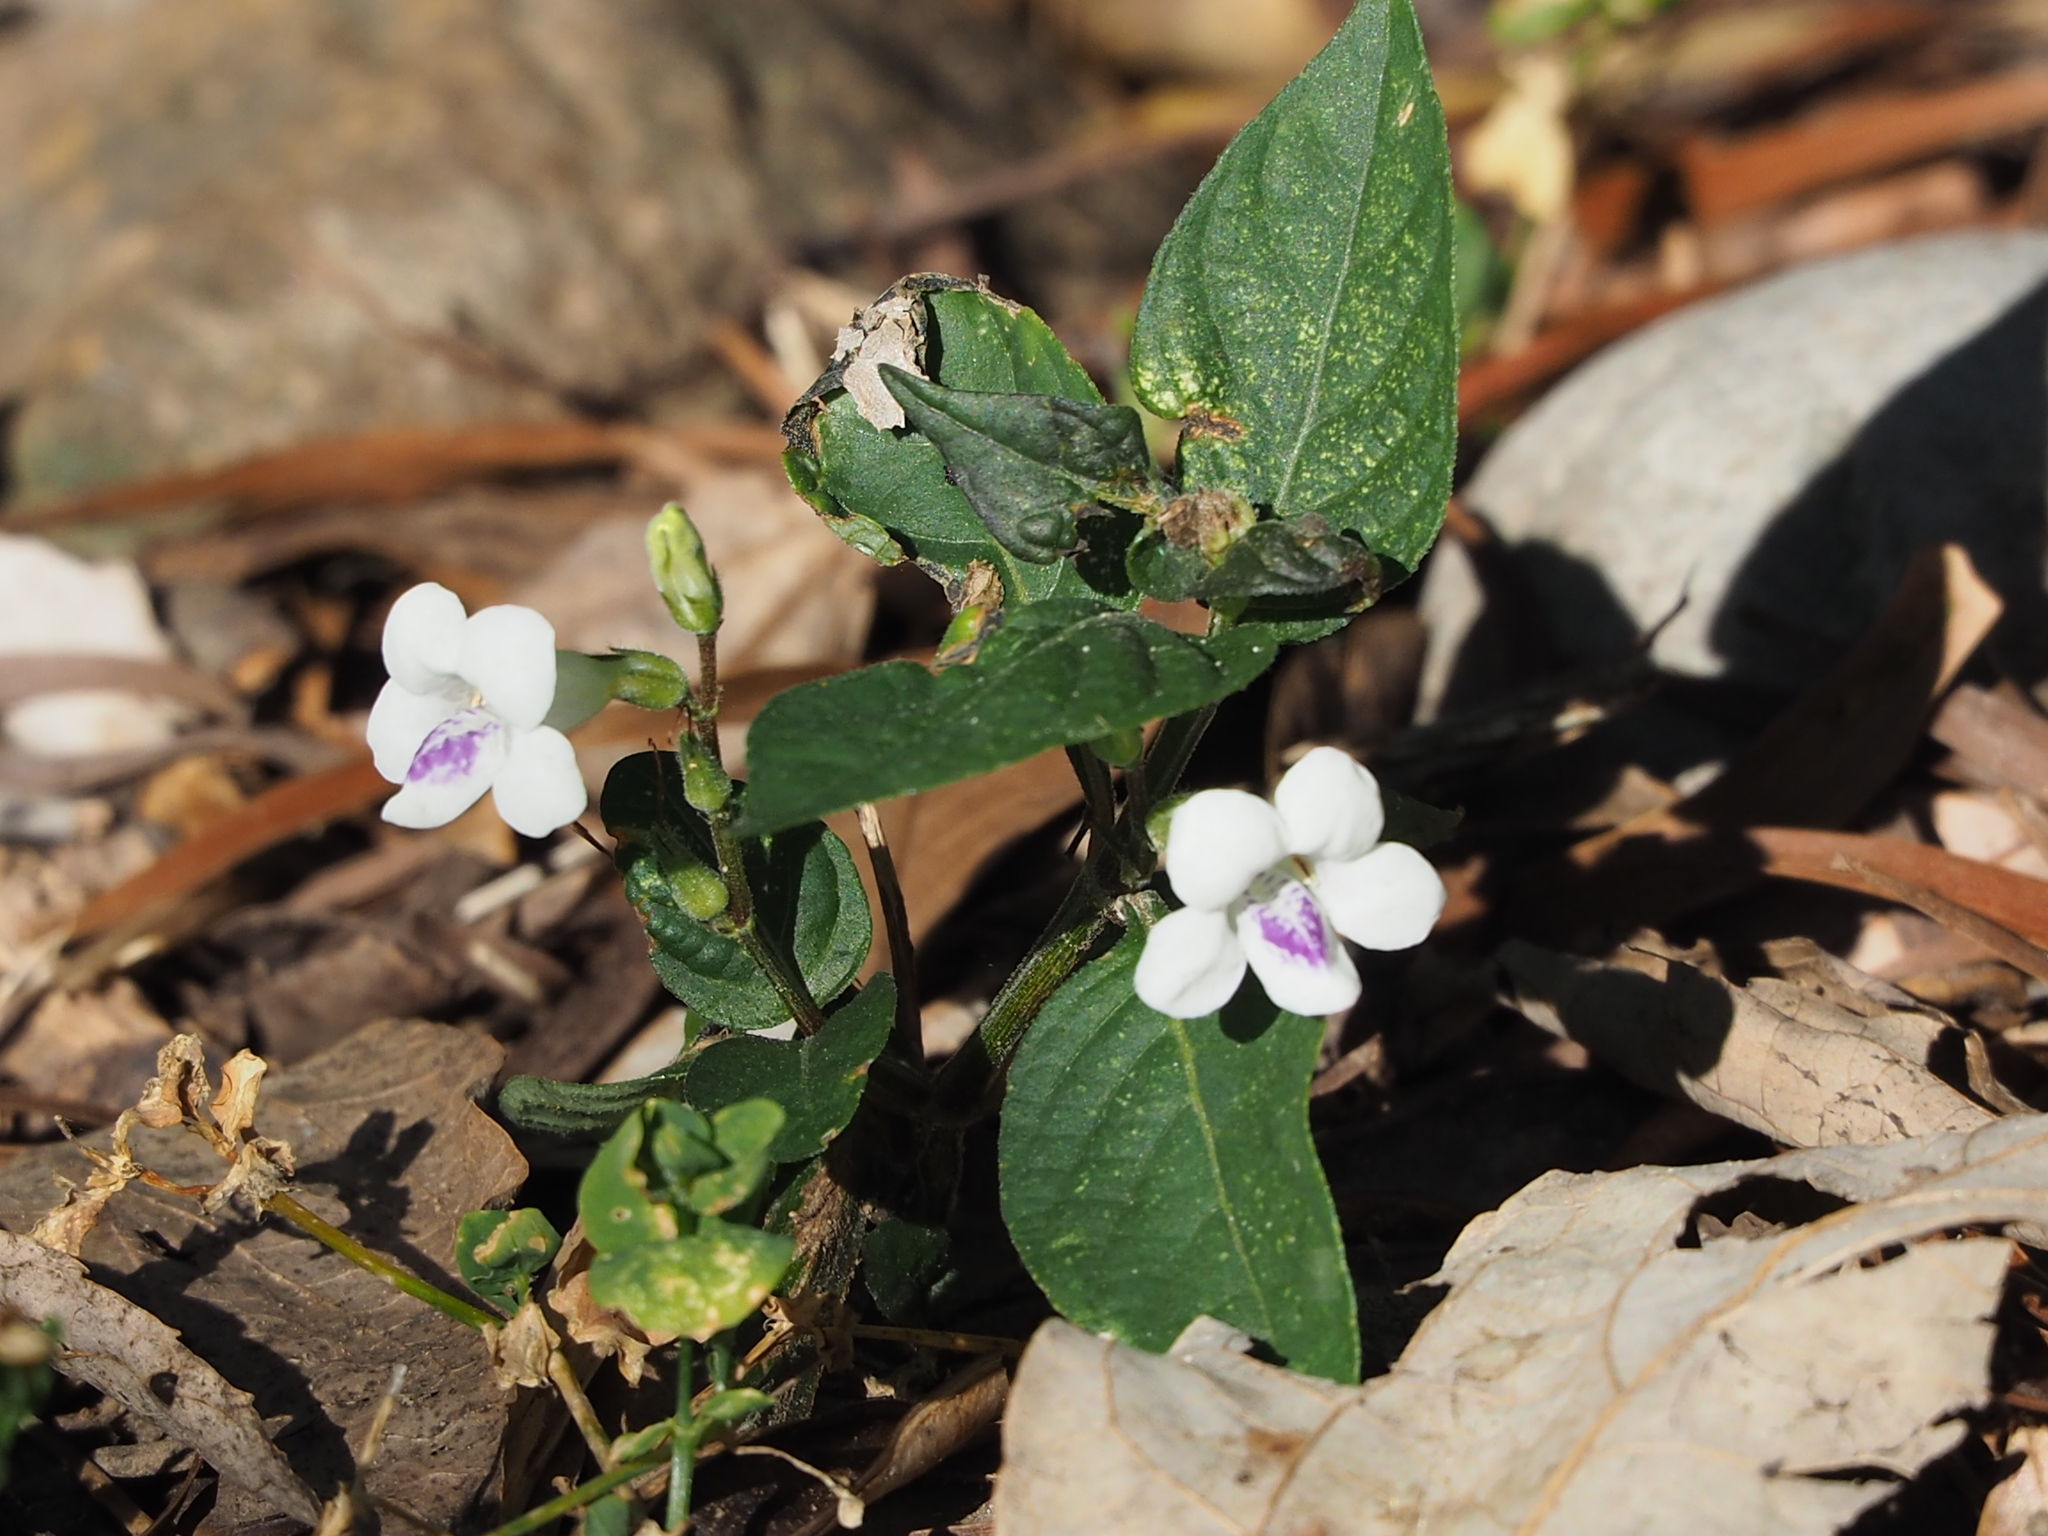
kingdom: Plantae
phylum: Tracheophyta
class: Magnoliopsida
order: Lamiales
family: Acanthaceae
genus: Asystasia
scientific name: Asystasia intrusa
